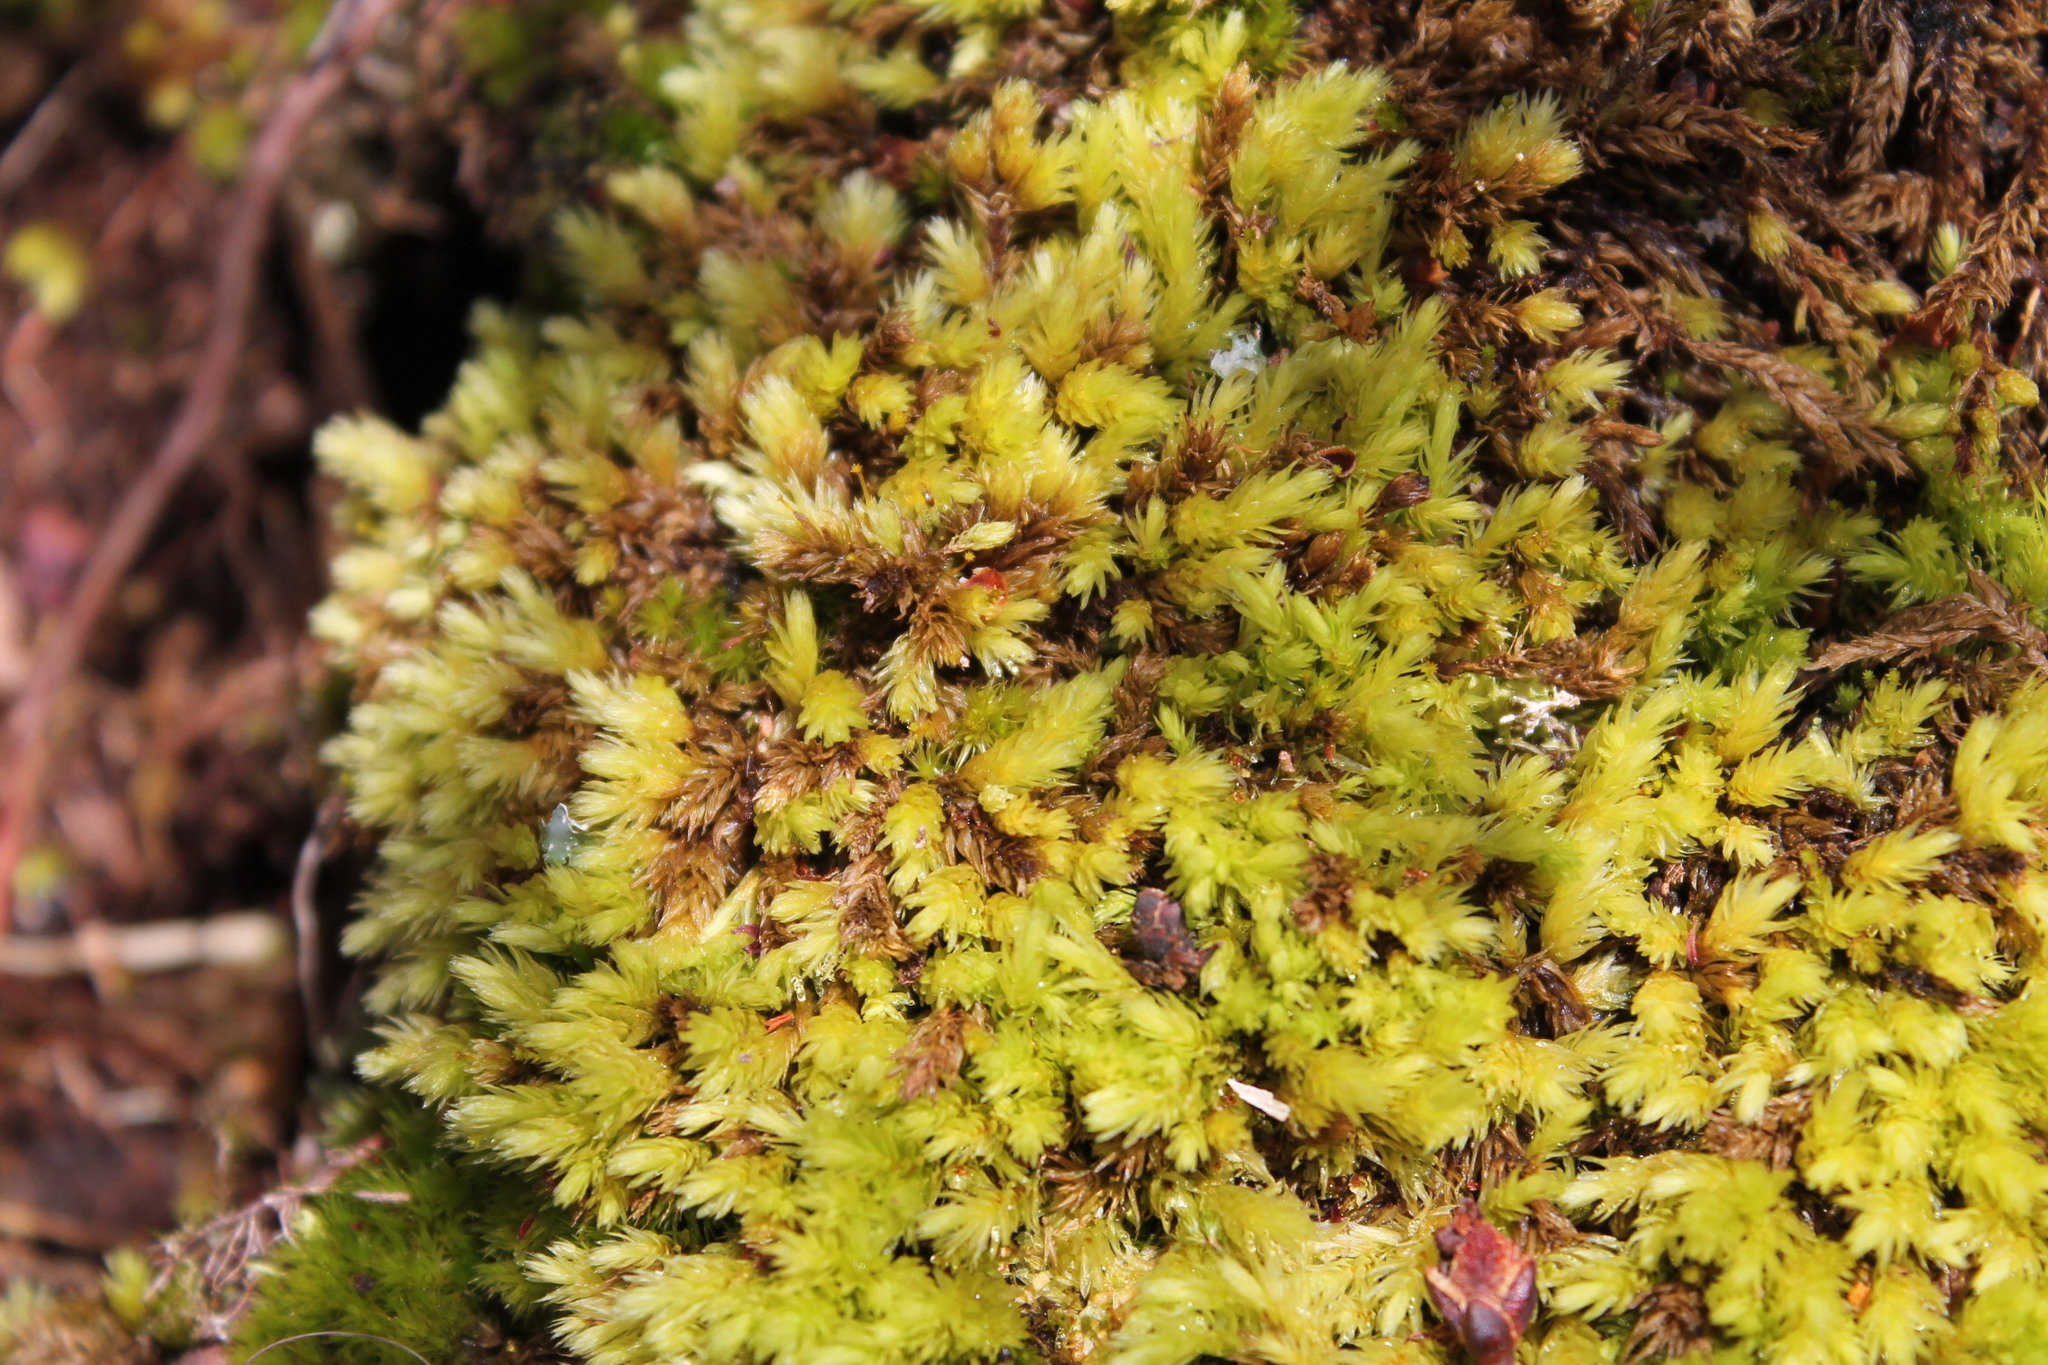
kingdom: Plantae
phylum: Bryophyta
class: Bryopsida
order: Aulacomniales
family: Aulacomniaceae
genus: Aulacomnium
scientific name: Aulacomnium palustre
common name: Bog groove-moss
